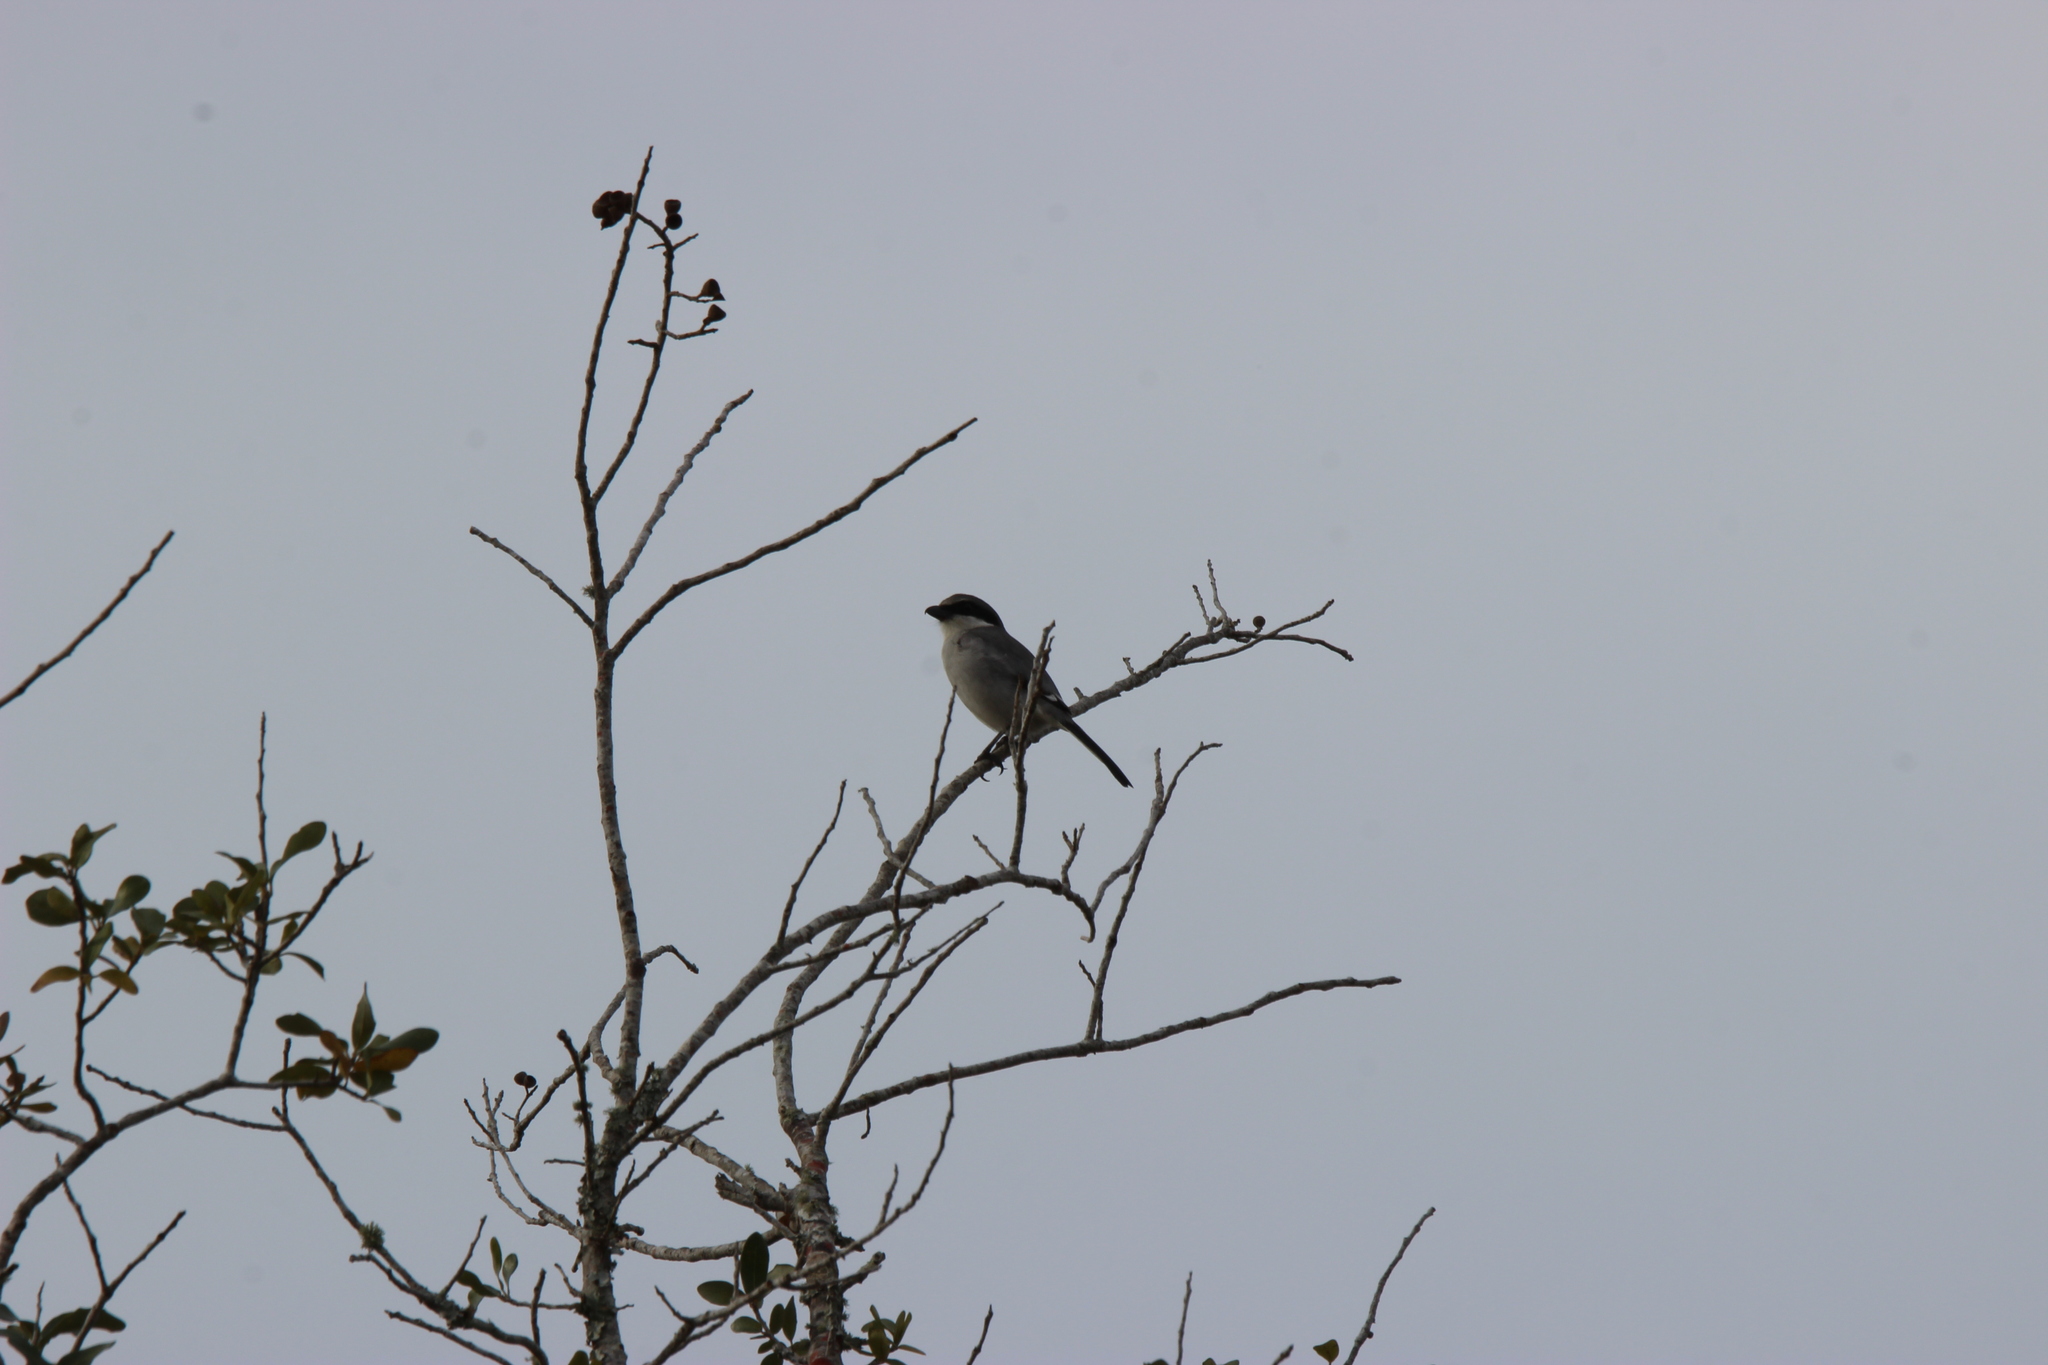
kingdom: Animalia
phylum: Chordata
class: Aves
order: Passeriformes
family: Laniidae
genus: Lanius
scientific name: Lanius ludovicianus
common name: Loggerhead shrike
